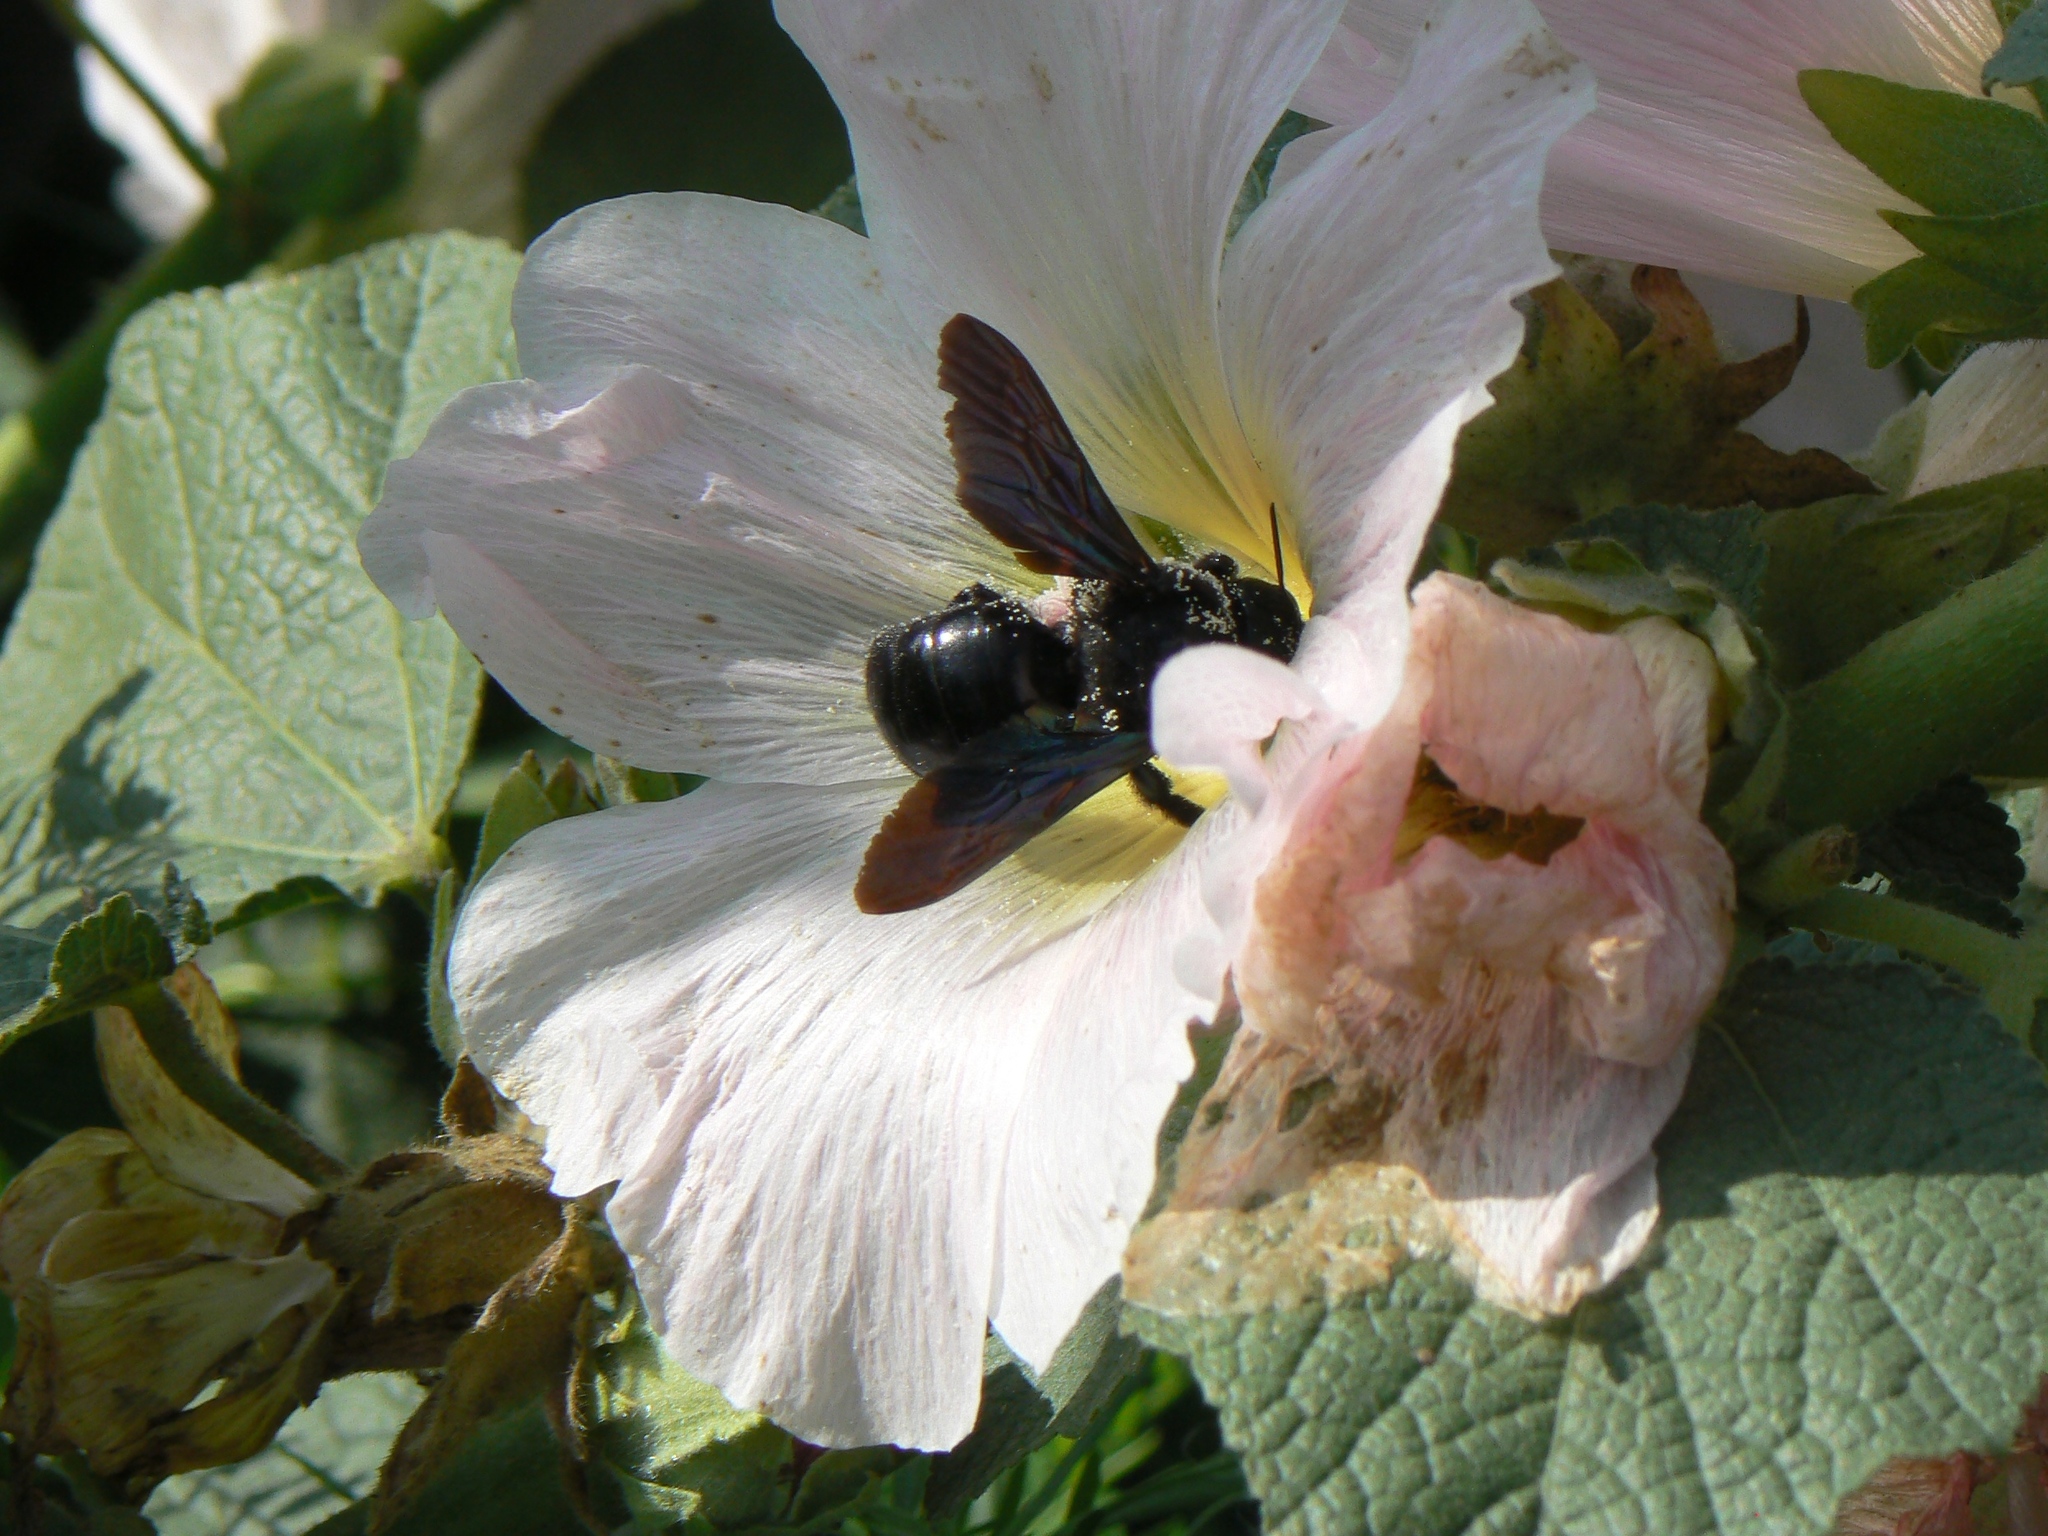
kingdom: Animalia
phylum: Arthropoda
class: Insecta
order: Hymenoptera
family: Apidae
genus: Xylocopa
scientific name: Xylocopa valga
